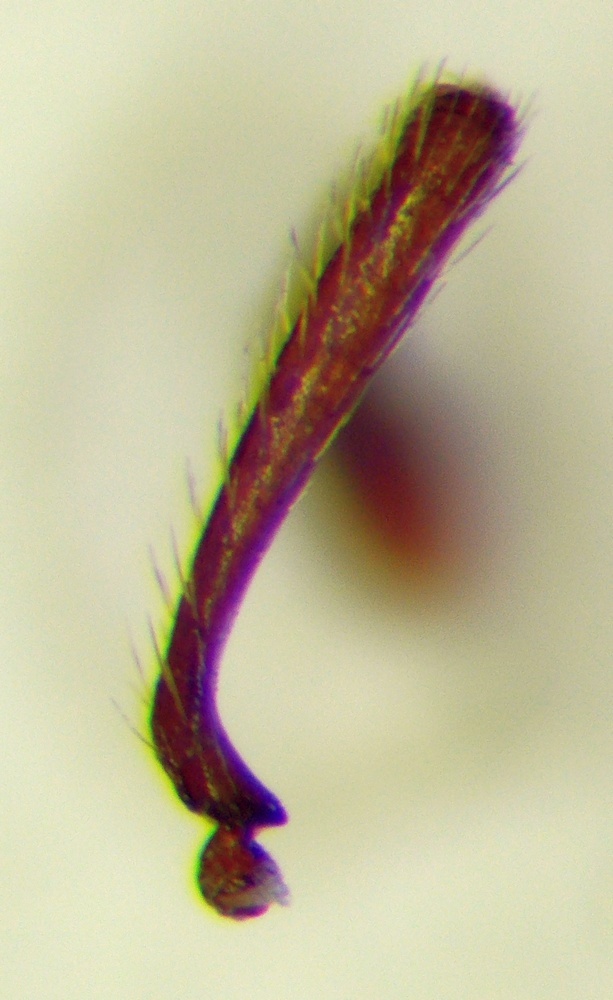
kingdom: Animalia
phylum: Arthropoda
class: Insecta
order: Hymenoptera
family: Formicidae
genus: Myrmica
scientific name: Myrmica rugulosa
